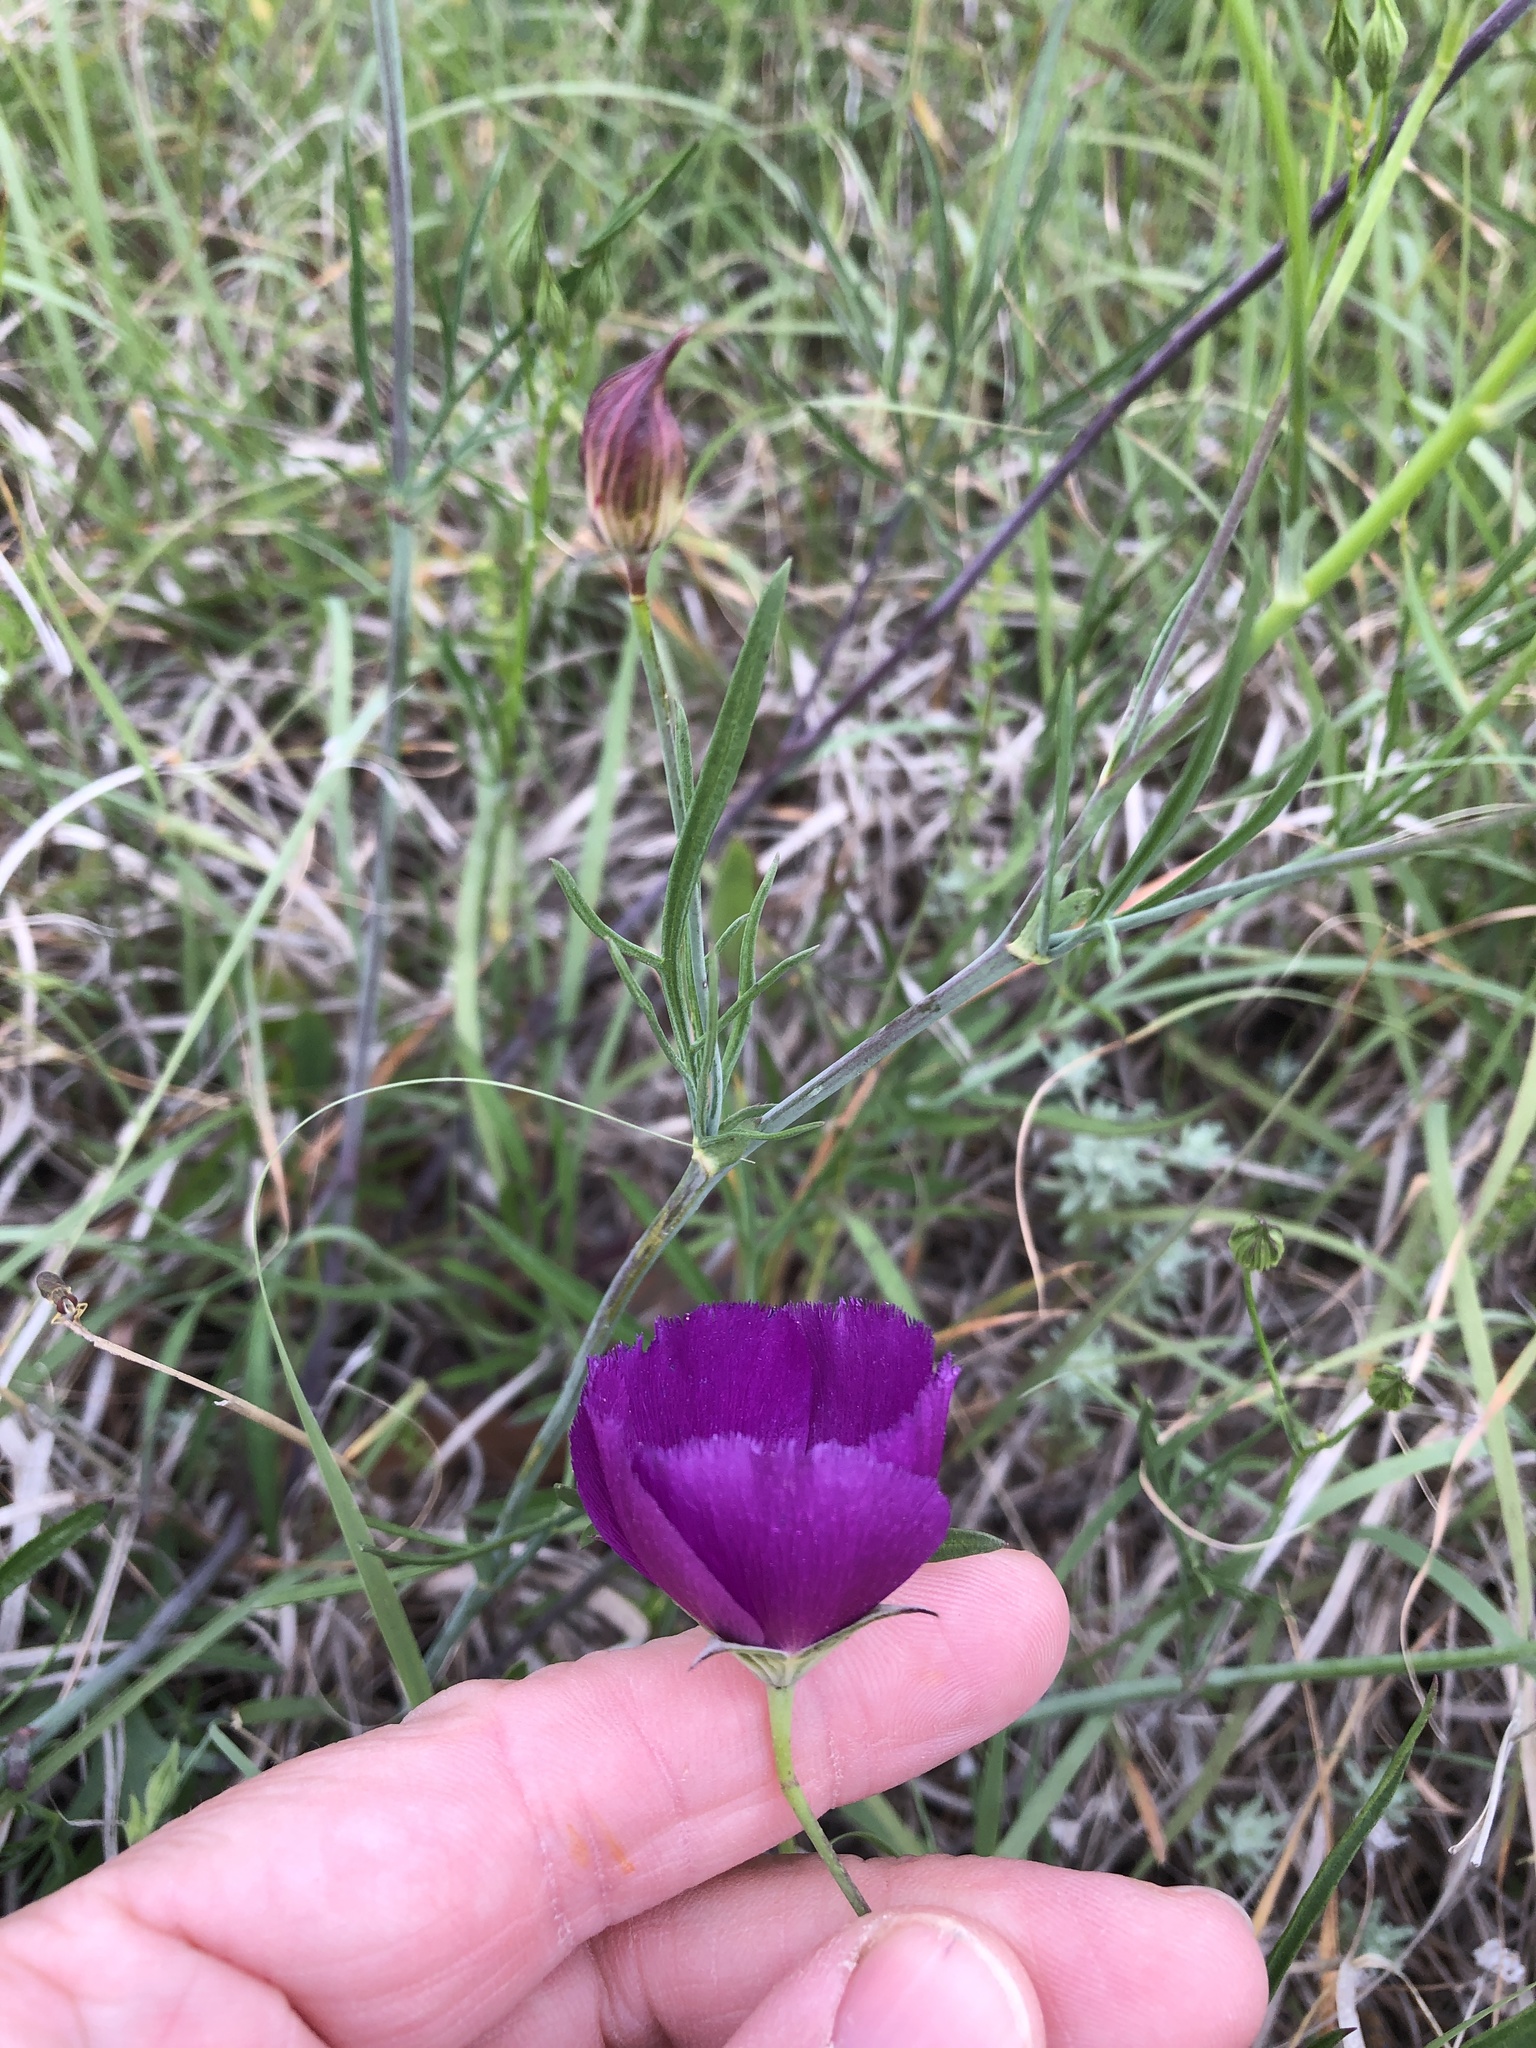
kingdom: Plantae
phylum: Tracheophyta
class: Magnoliopsida
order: Malvales
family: Malvaceae
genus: Callirhoe
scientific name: Callirhoe pedata
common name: Finger poppy-mallow
